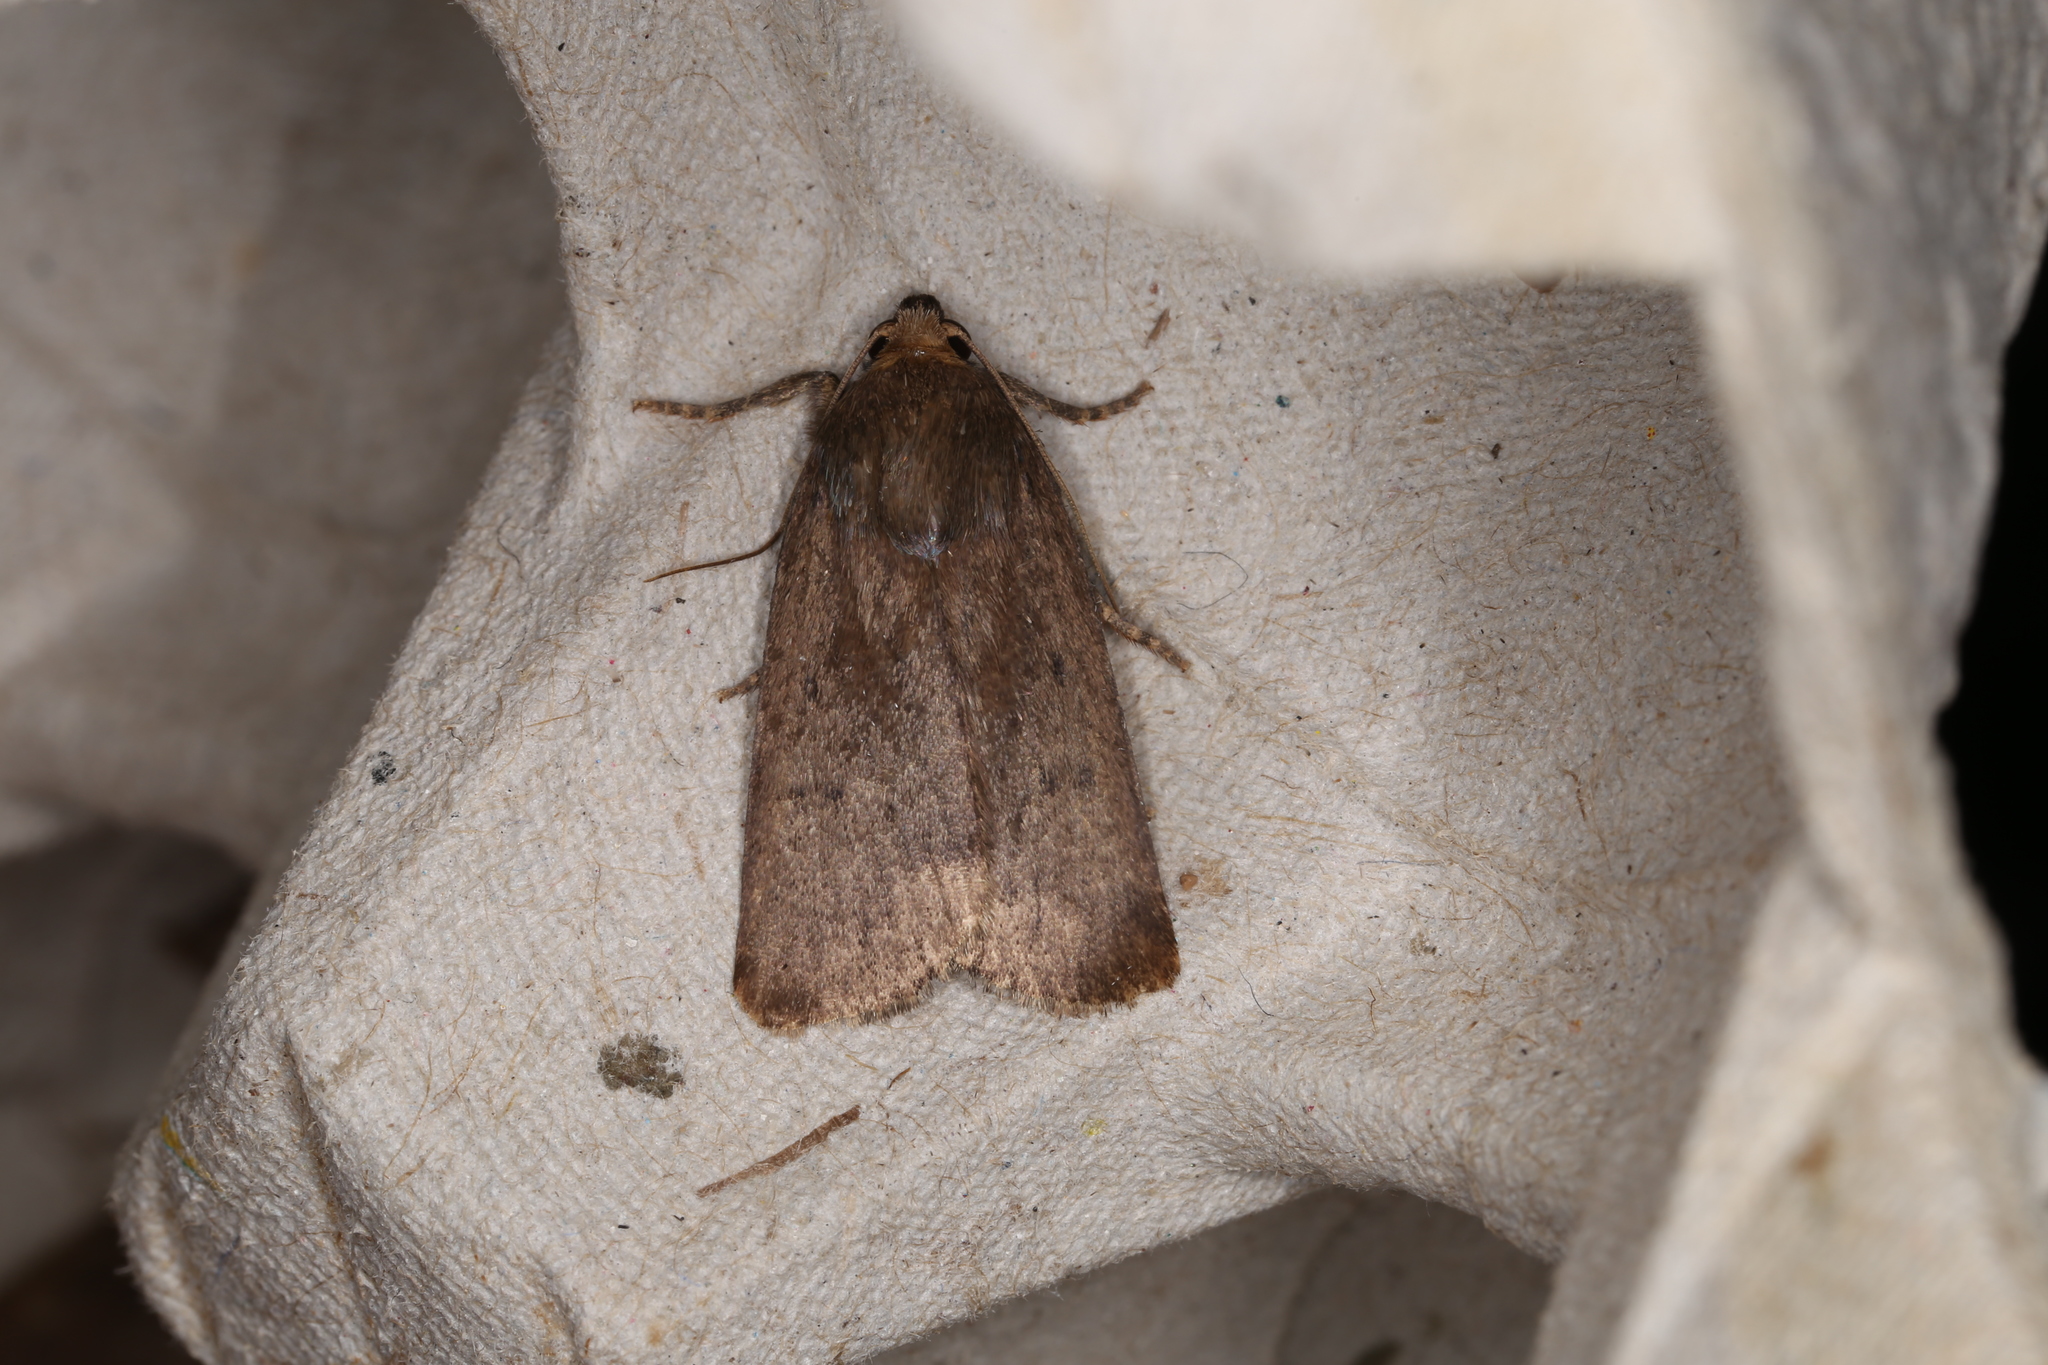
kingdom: Animalia
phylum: Arthropoda
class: Insecta
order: Lepidoptera
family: Noctuidae
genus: Amphipyra
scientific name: Amphipyra tragopoginis
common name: Mouse moth
